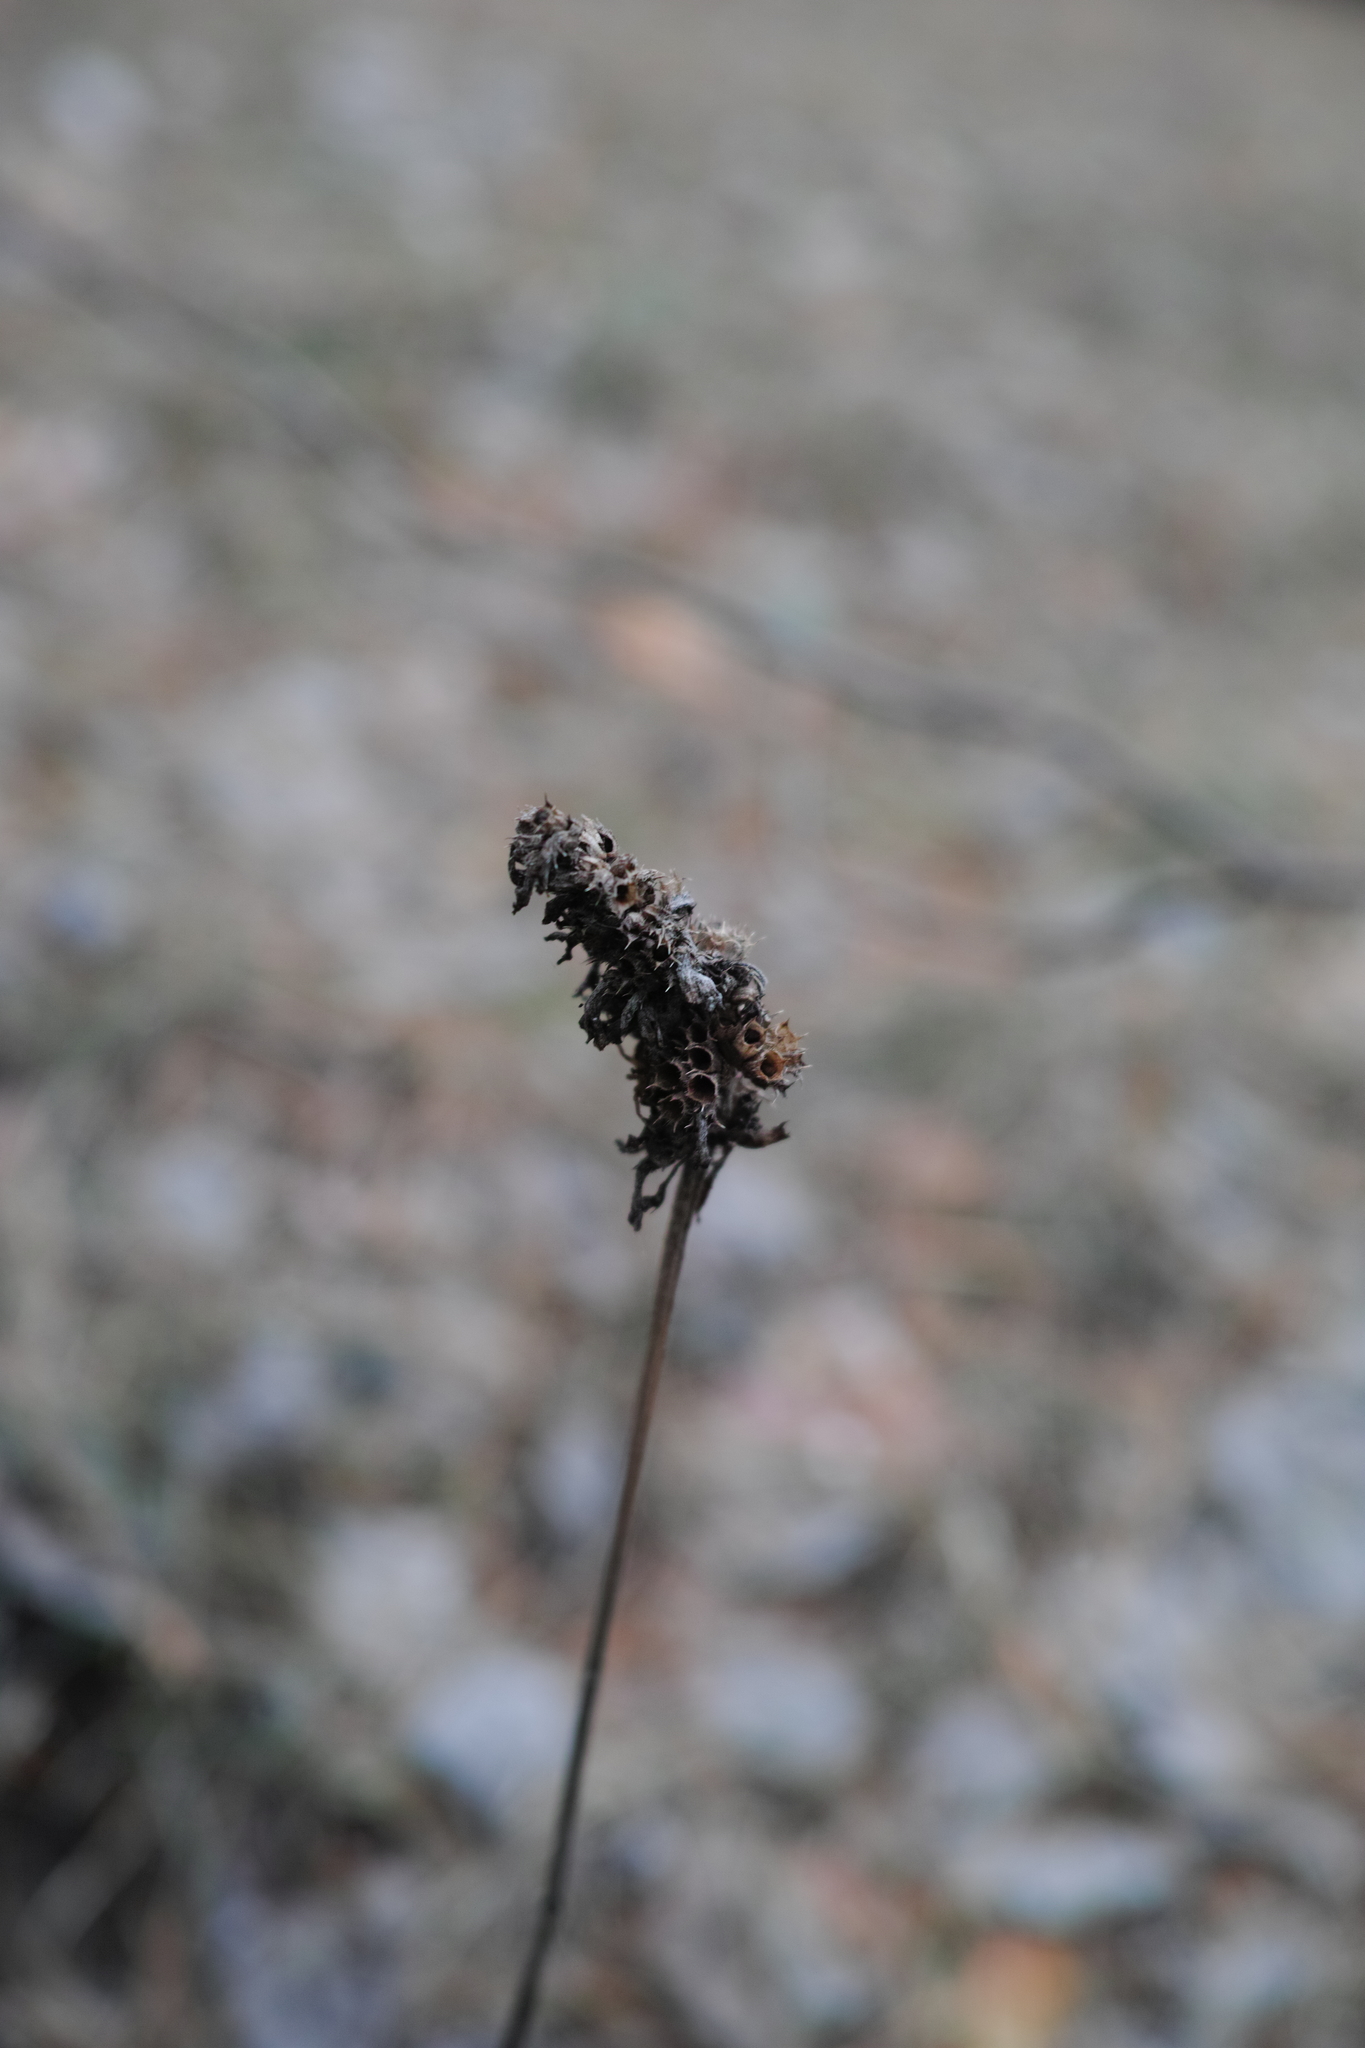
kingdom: Plantae
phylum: Tracheophyta
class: Magnoliopsida
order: Lamiales
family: Lamiaceae
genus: Betonica
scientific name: Betonica officinalis
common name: Bishop's-wort
